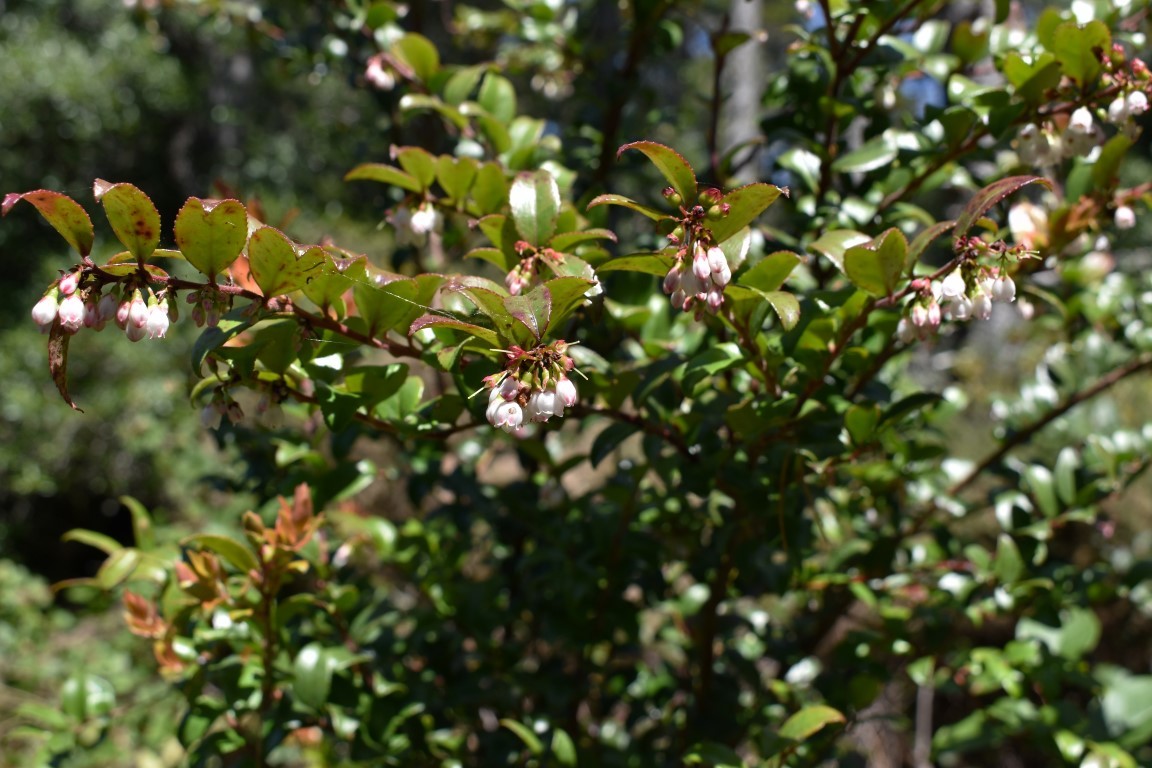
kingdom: Plantae
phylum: Tracheophyta
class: Magnoliopsida
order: Ericales
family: Ericaceae
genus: Vaccinium
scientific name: Vaccinium ovatum
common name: California-huckleberry
